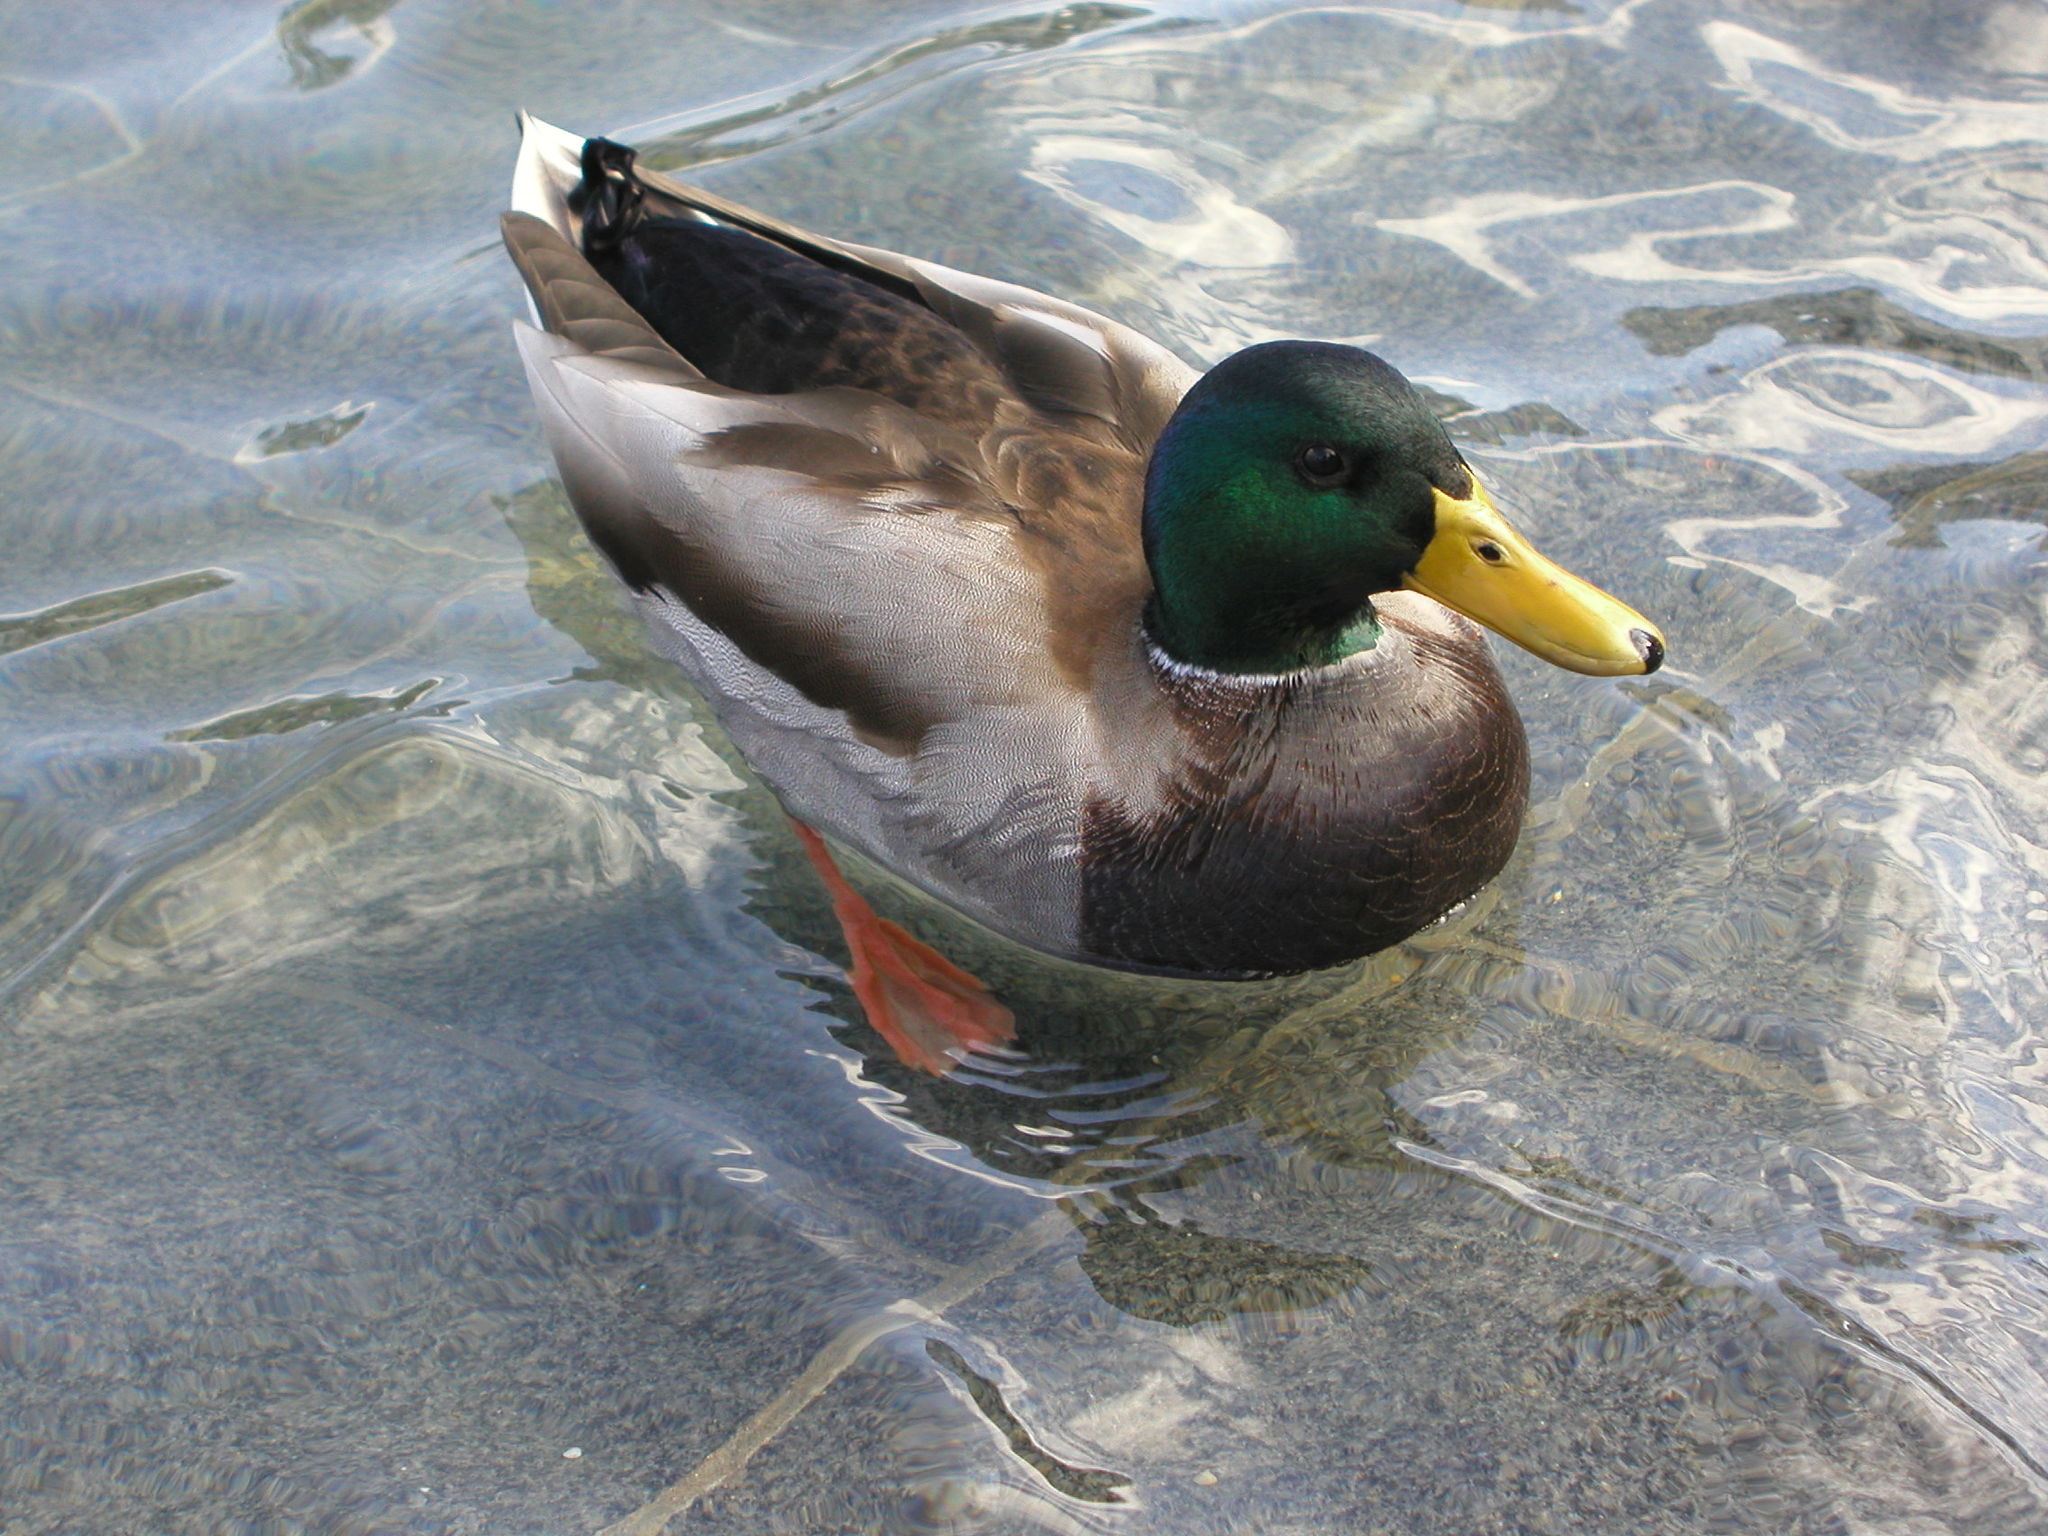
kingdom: Animalia
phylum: Chordata
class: Aves
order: Anseriformes
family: Anatidae
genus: Anas
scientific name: Anas platyrhynchos
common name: Mallard
